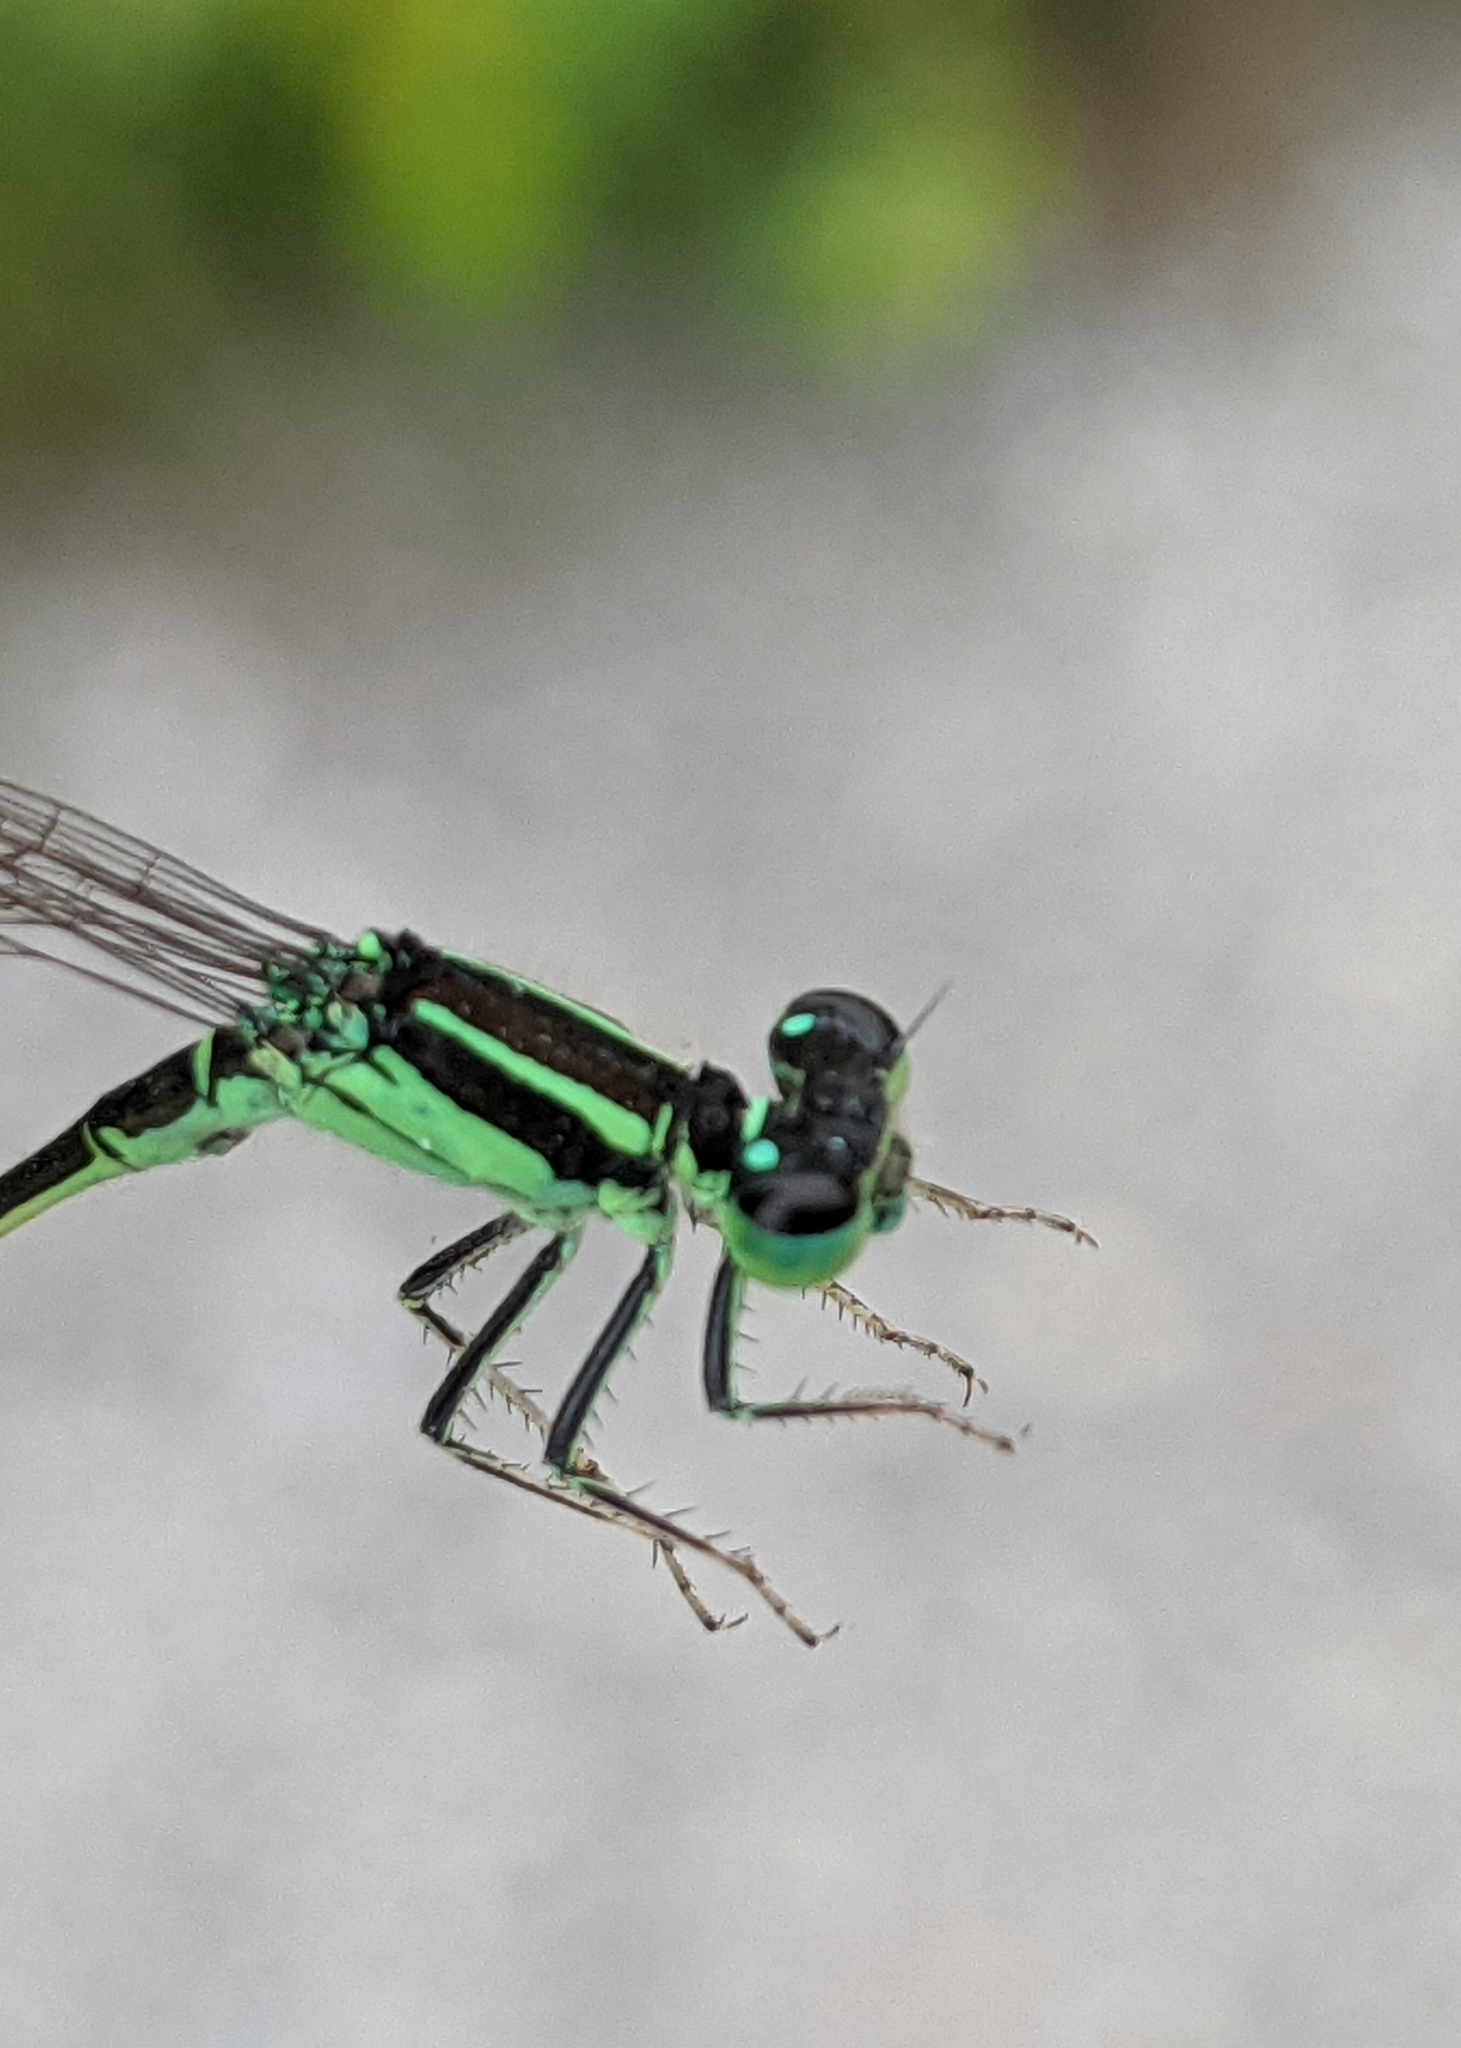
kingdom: Animalia
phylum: Arthropoda
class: Insecta
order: Odonata
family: Coenagrionidae
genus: Ischnura
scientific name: Ischnura verticalis
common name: Eastern forktail
